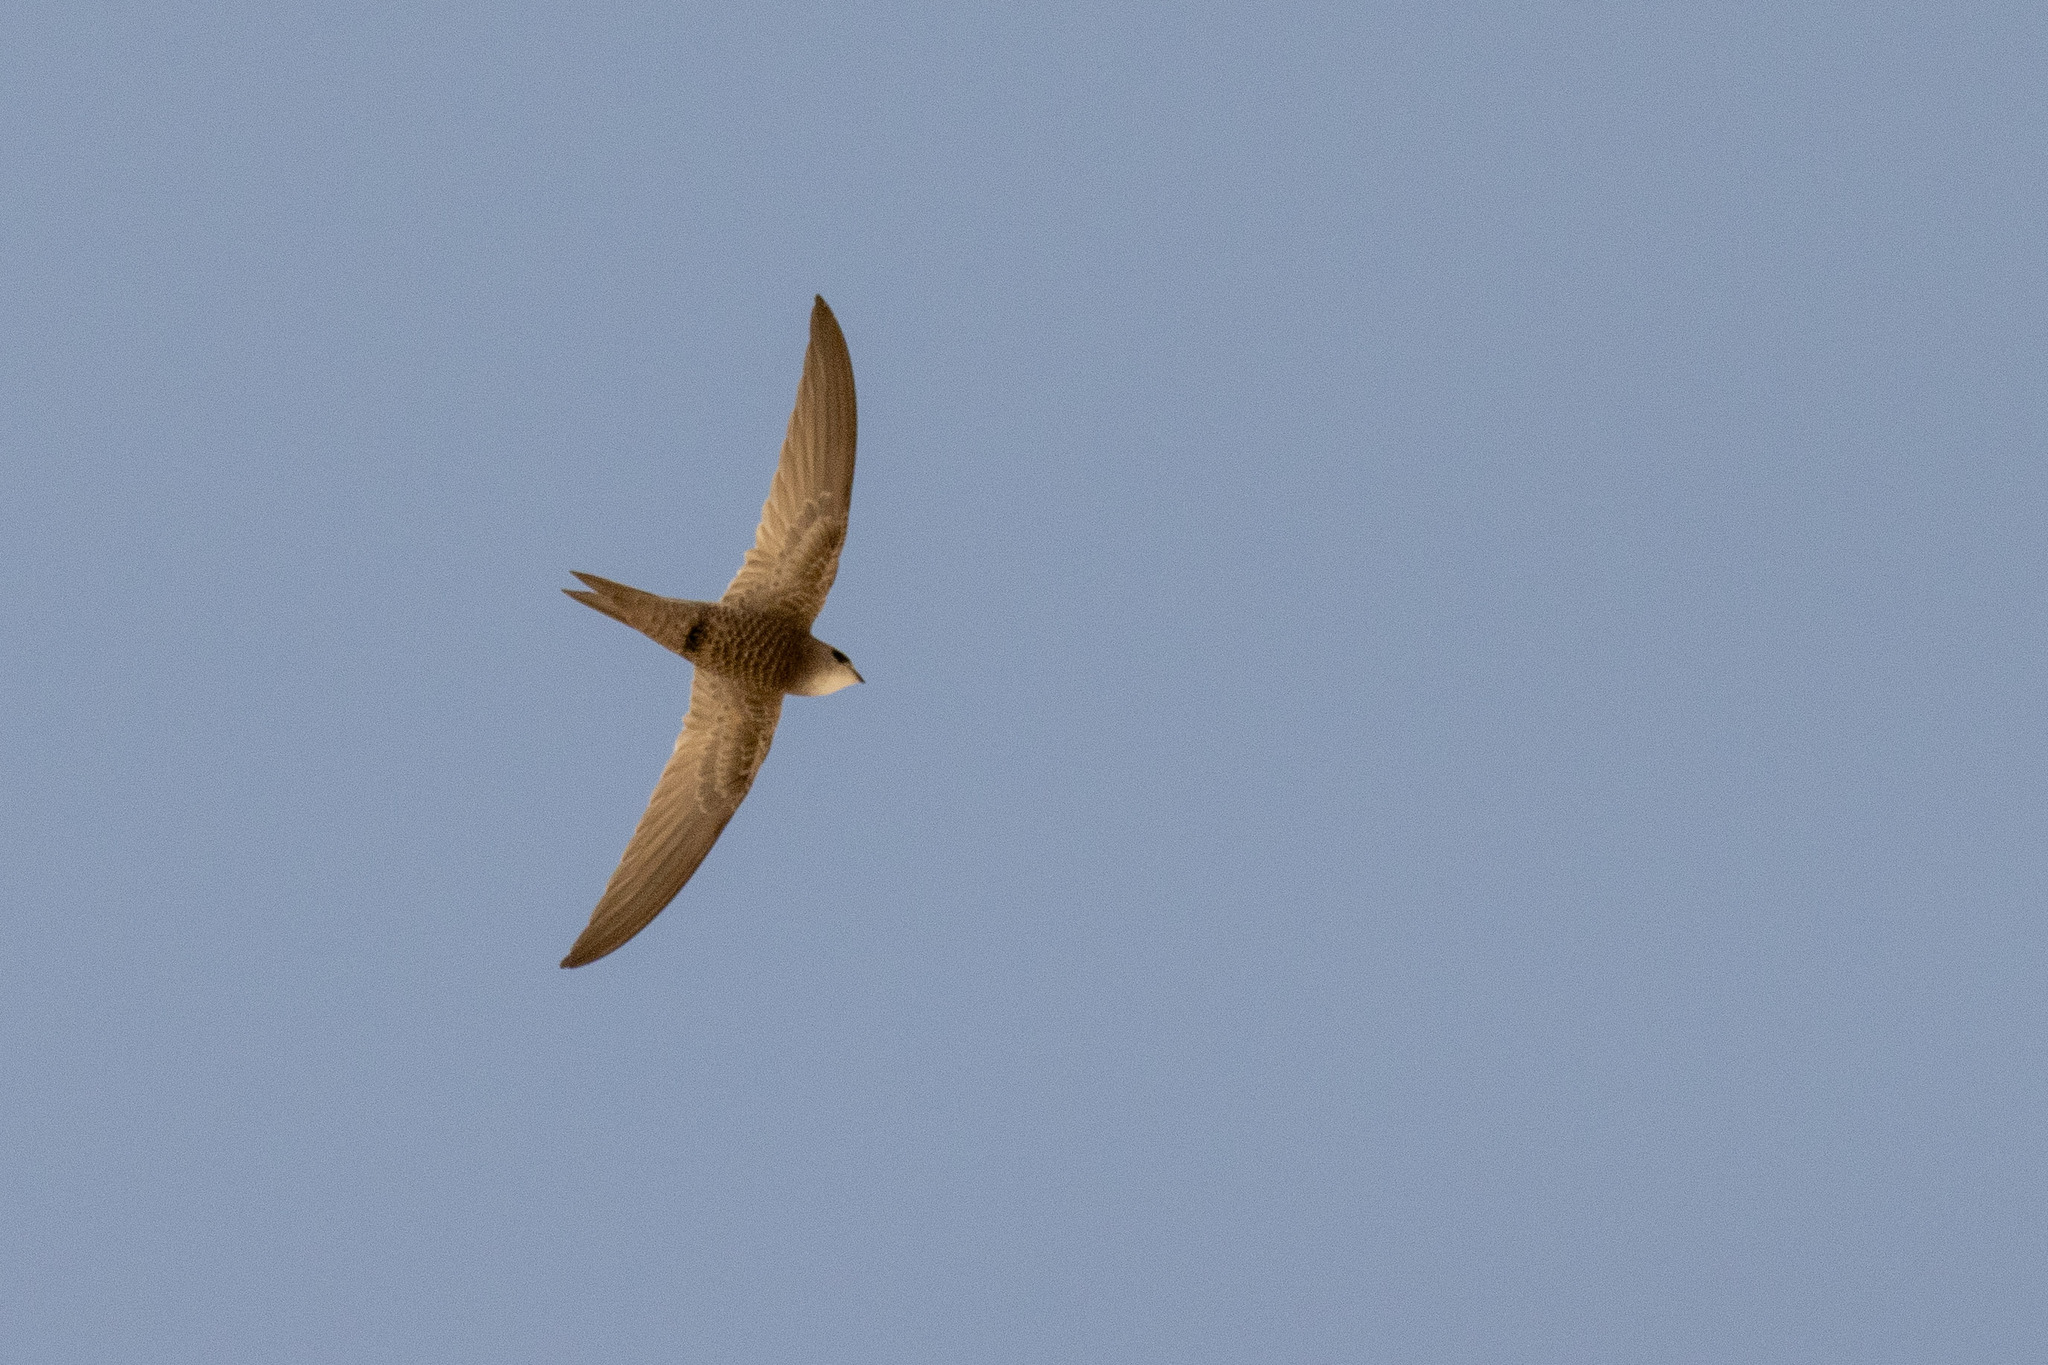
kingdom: Animalia
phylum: Chordata
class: Aves
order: Apodiformes
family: Apodidae
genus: Apus
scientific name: Apus pallidus
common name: Pallid swift
